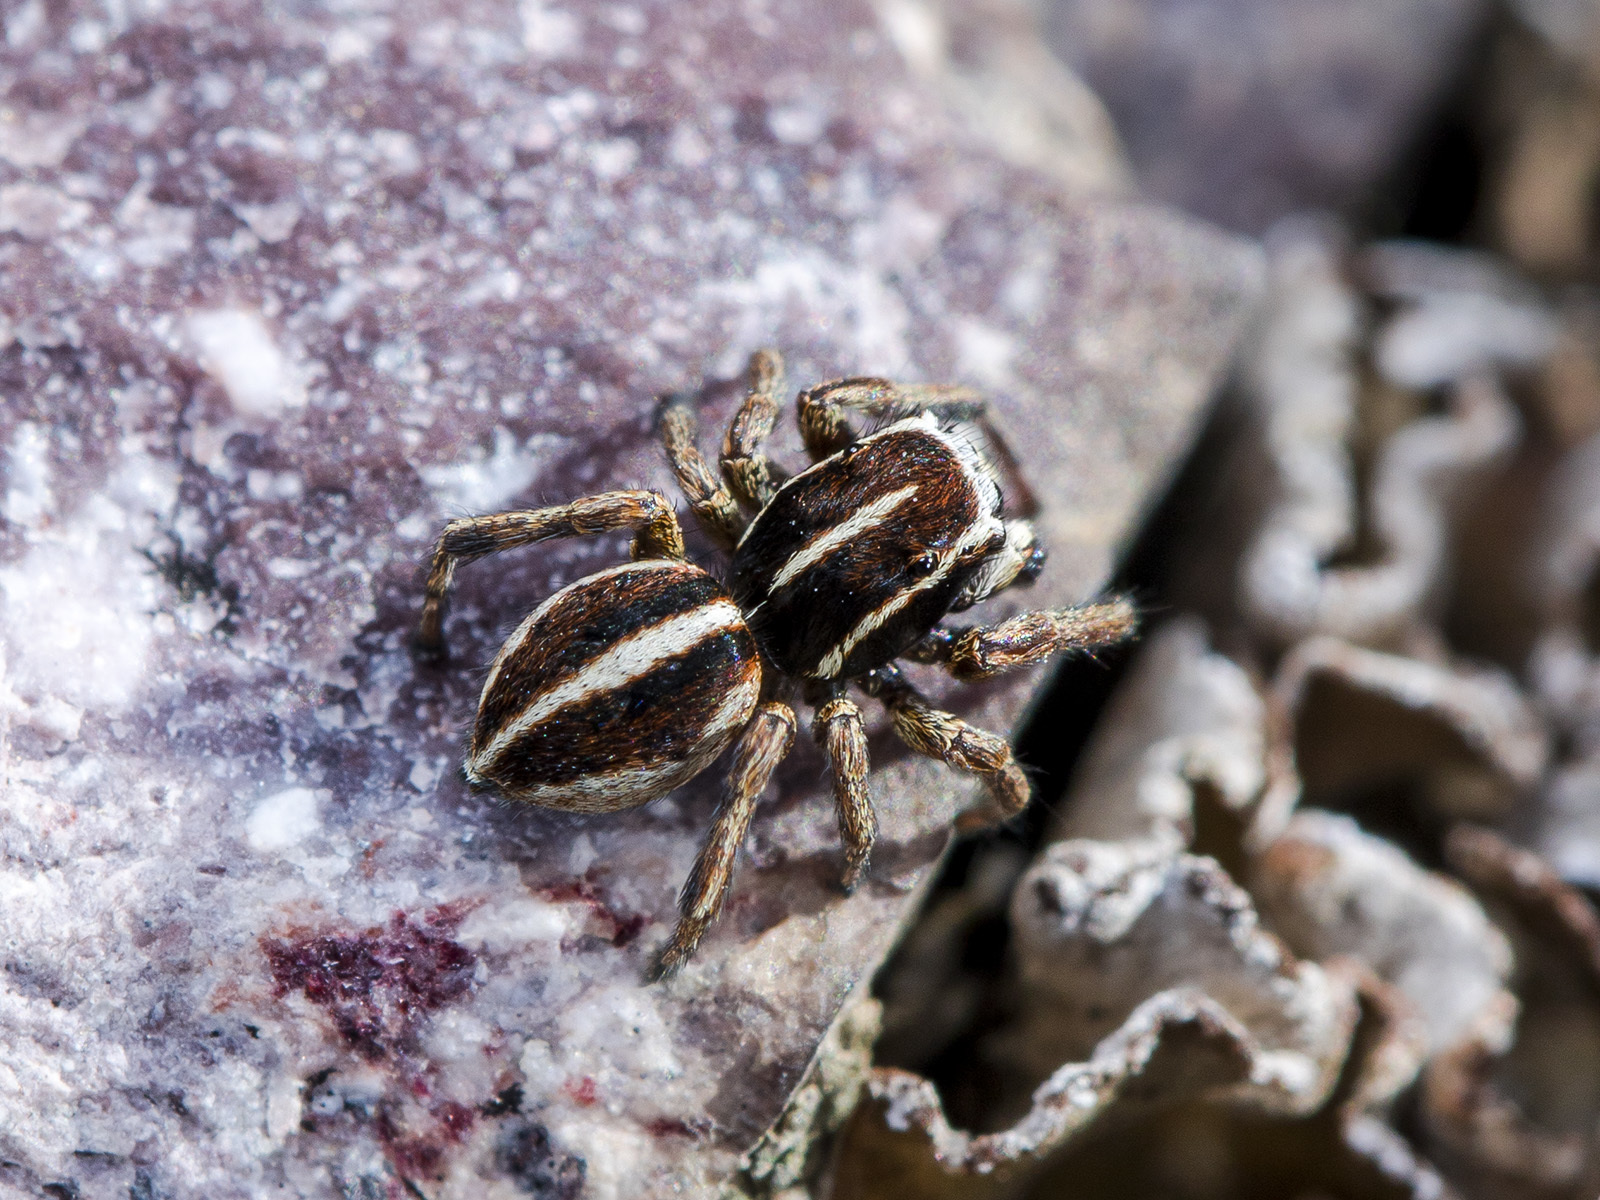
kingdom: Animalia
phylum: Arthropoda
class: Arachnida
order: Araneae
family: Salticidae
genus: Attulus
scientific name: Attulus talgarensis
